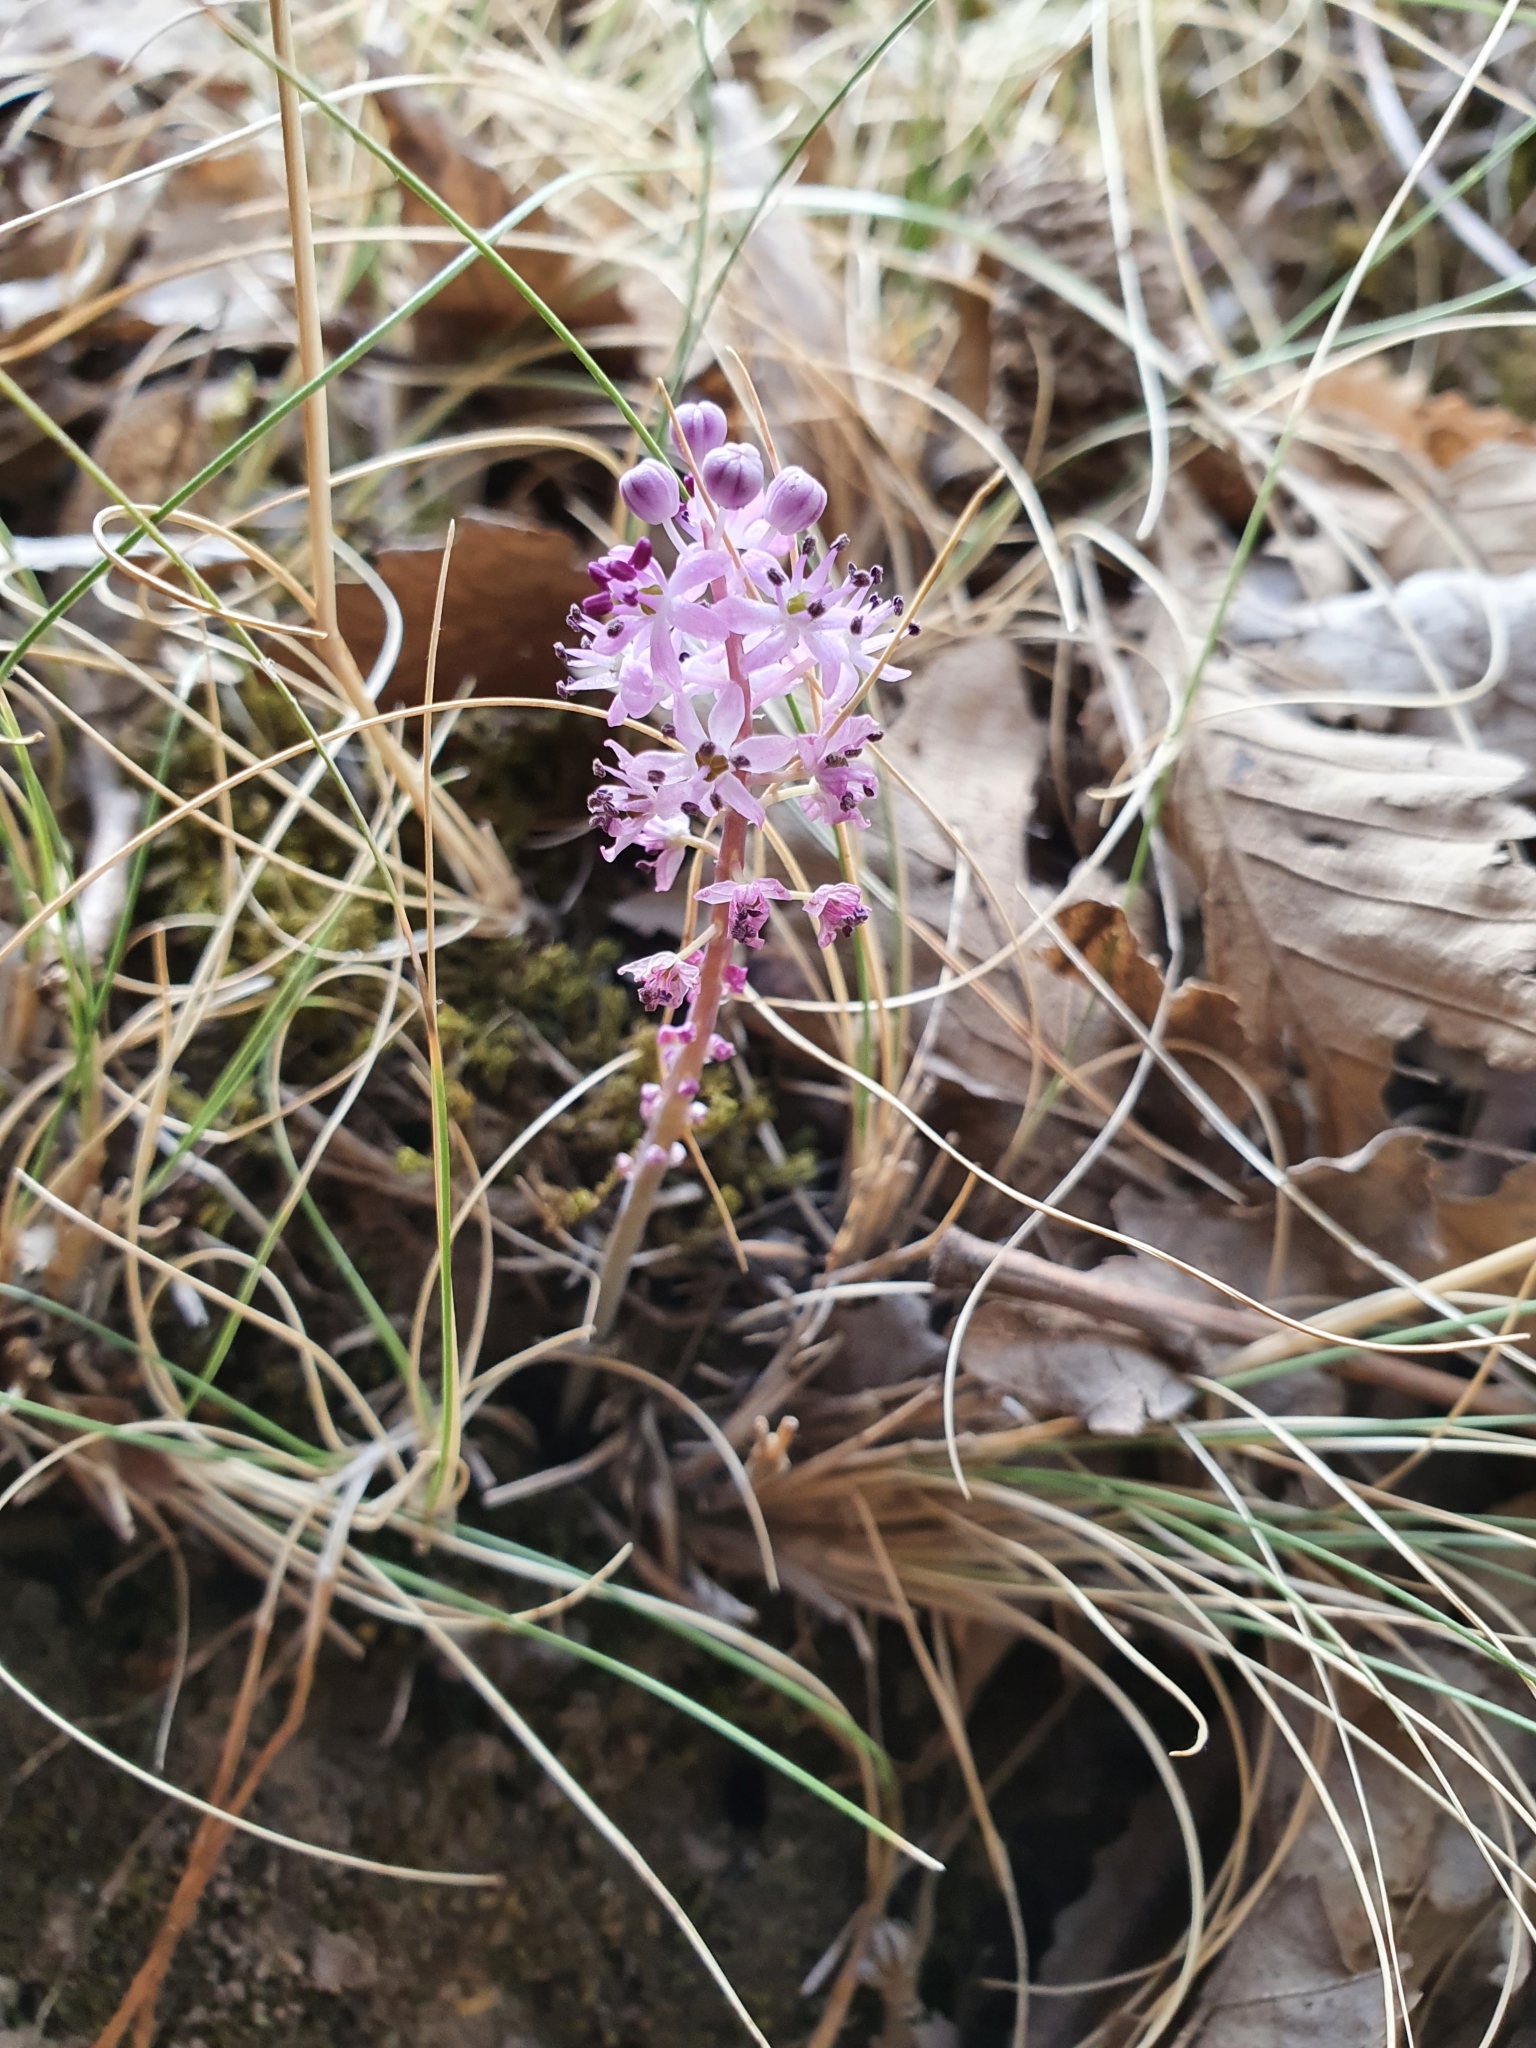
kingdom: Plantae
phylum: Tracheophyta
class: Liliopsida
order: Asparagales
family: Asparagaceae
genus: Barnardia
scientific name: Barnardia numidica
